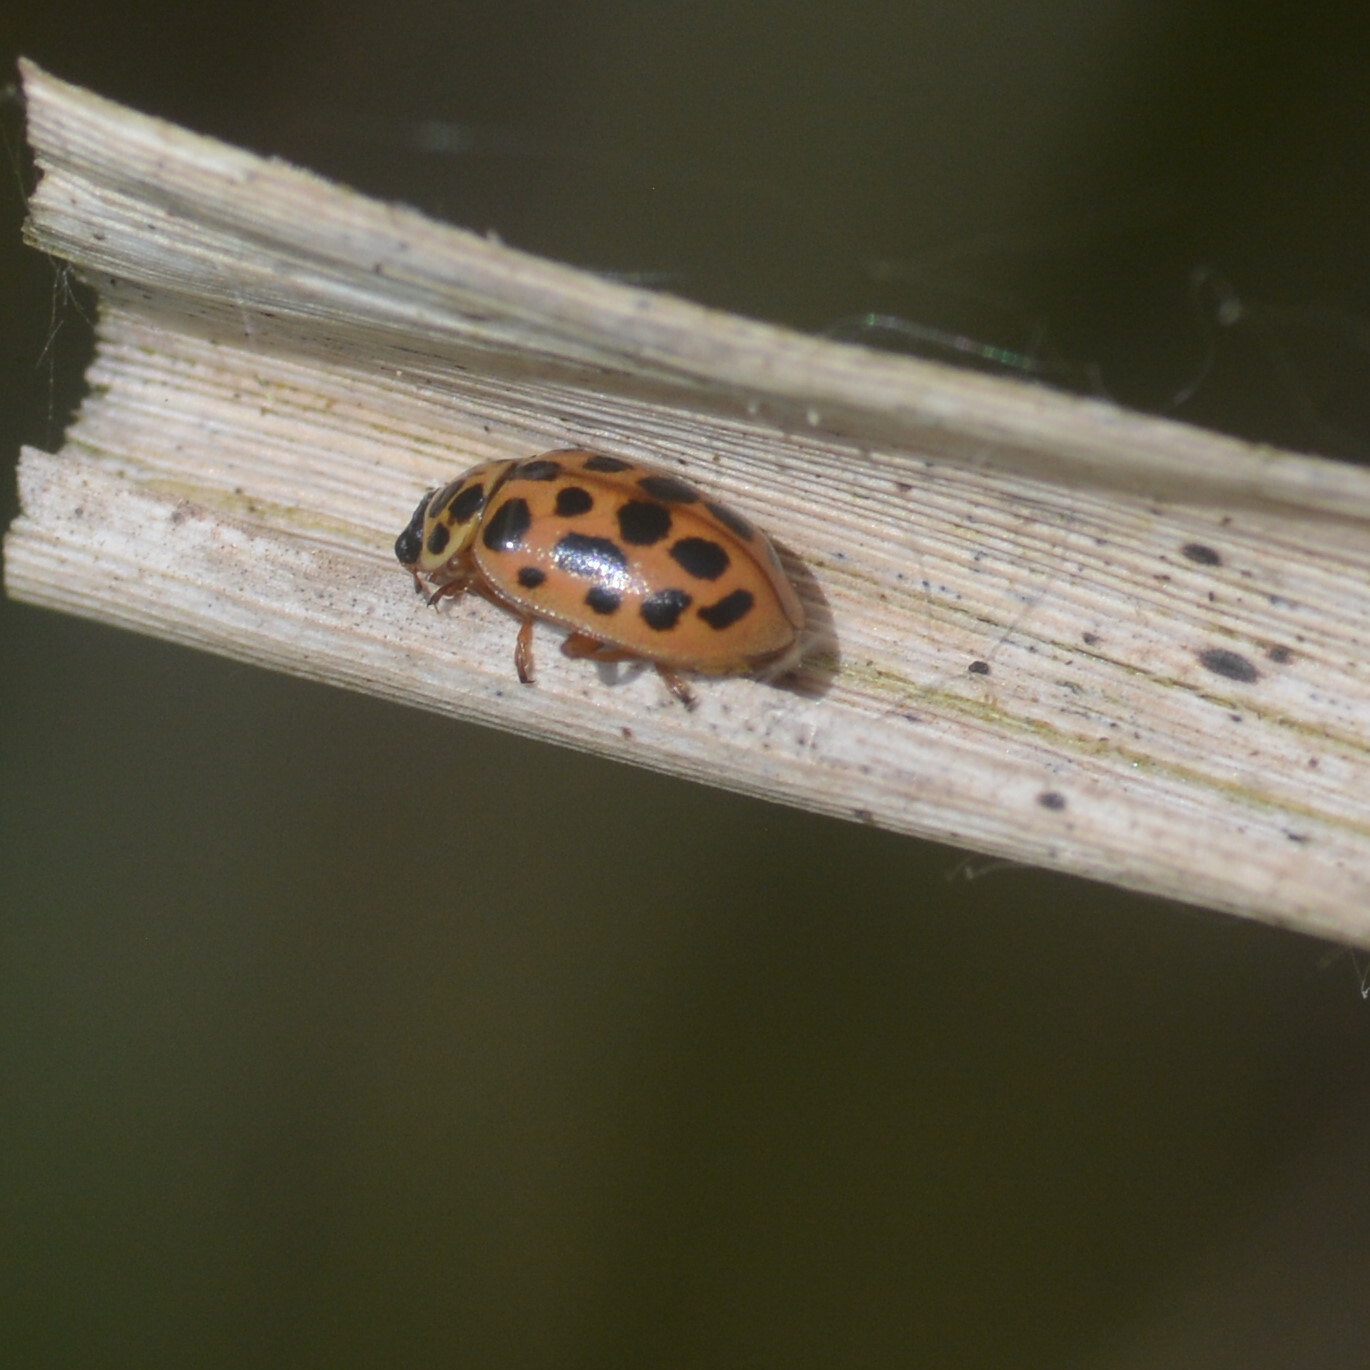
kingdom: Animalia
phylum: Arthropoda
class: Insecta
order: Coleoptera
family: Coccinellidae
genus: Anisosticta
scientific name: Anisosticta novemdecimpunctata
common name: Water ladybird
